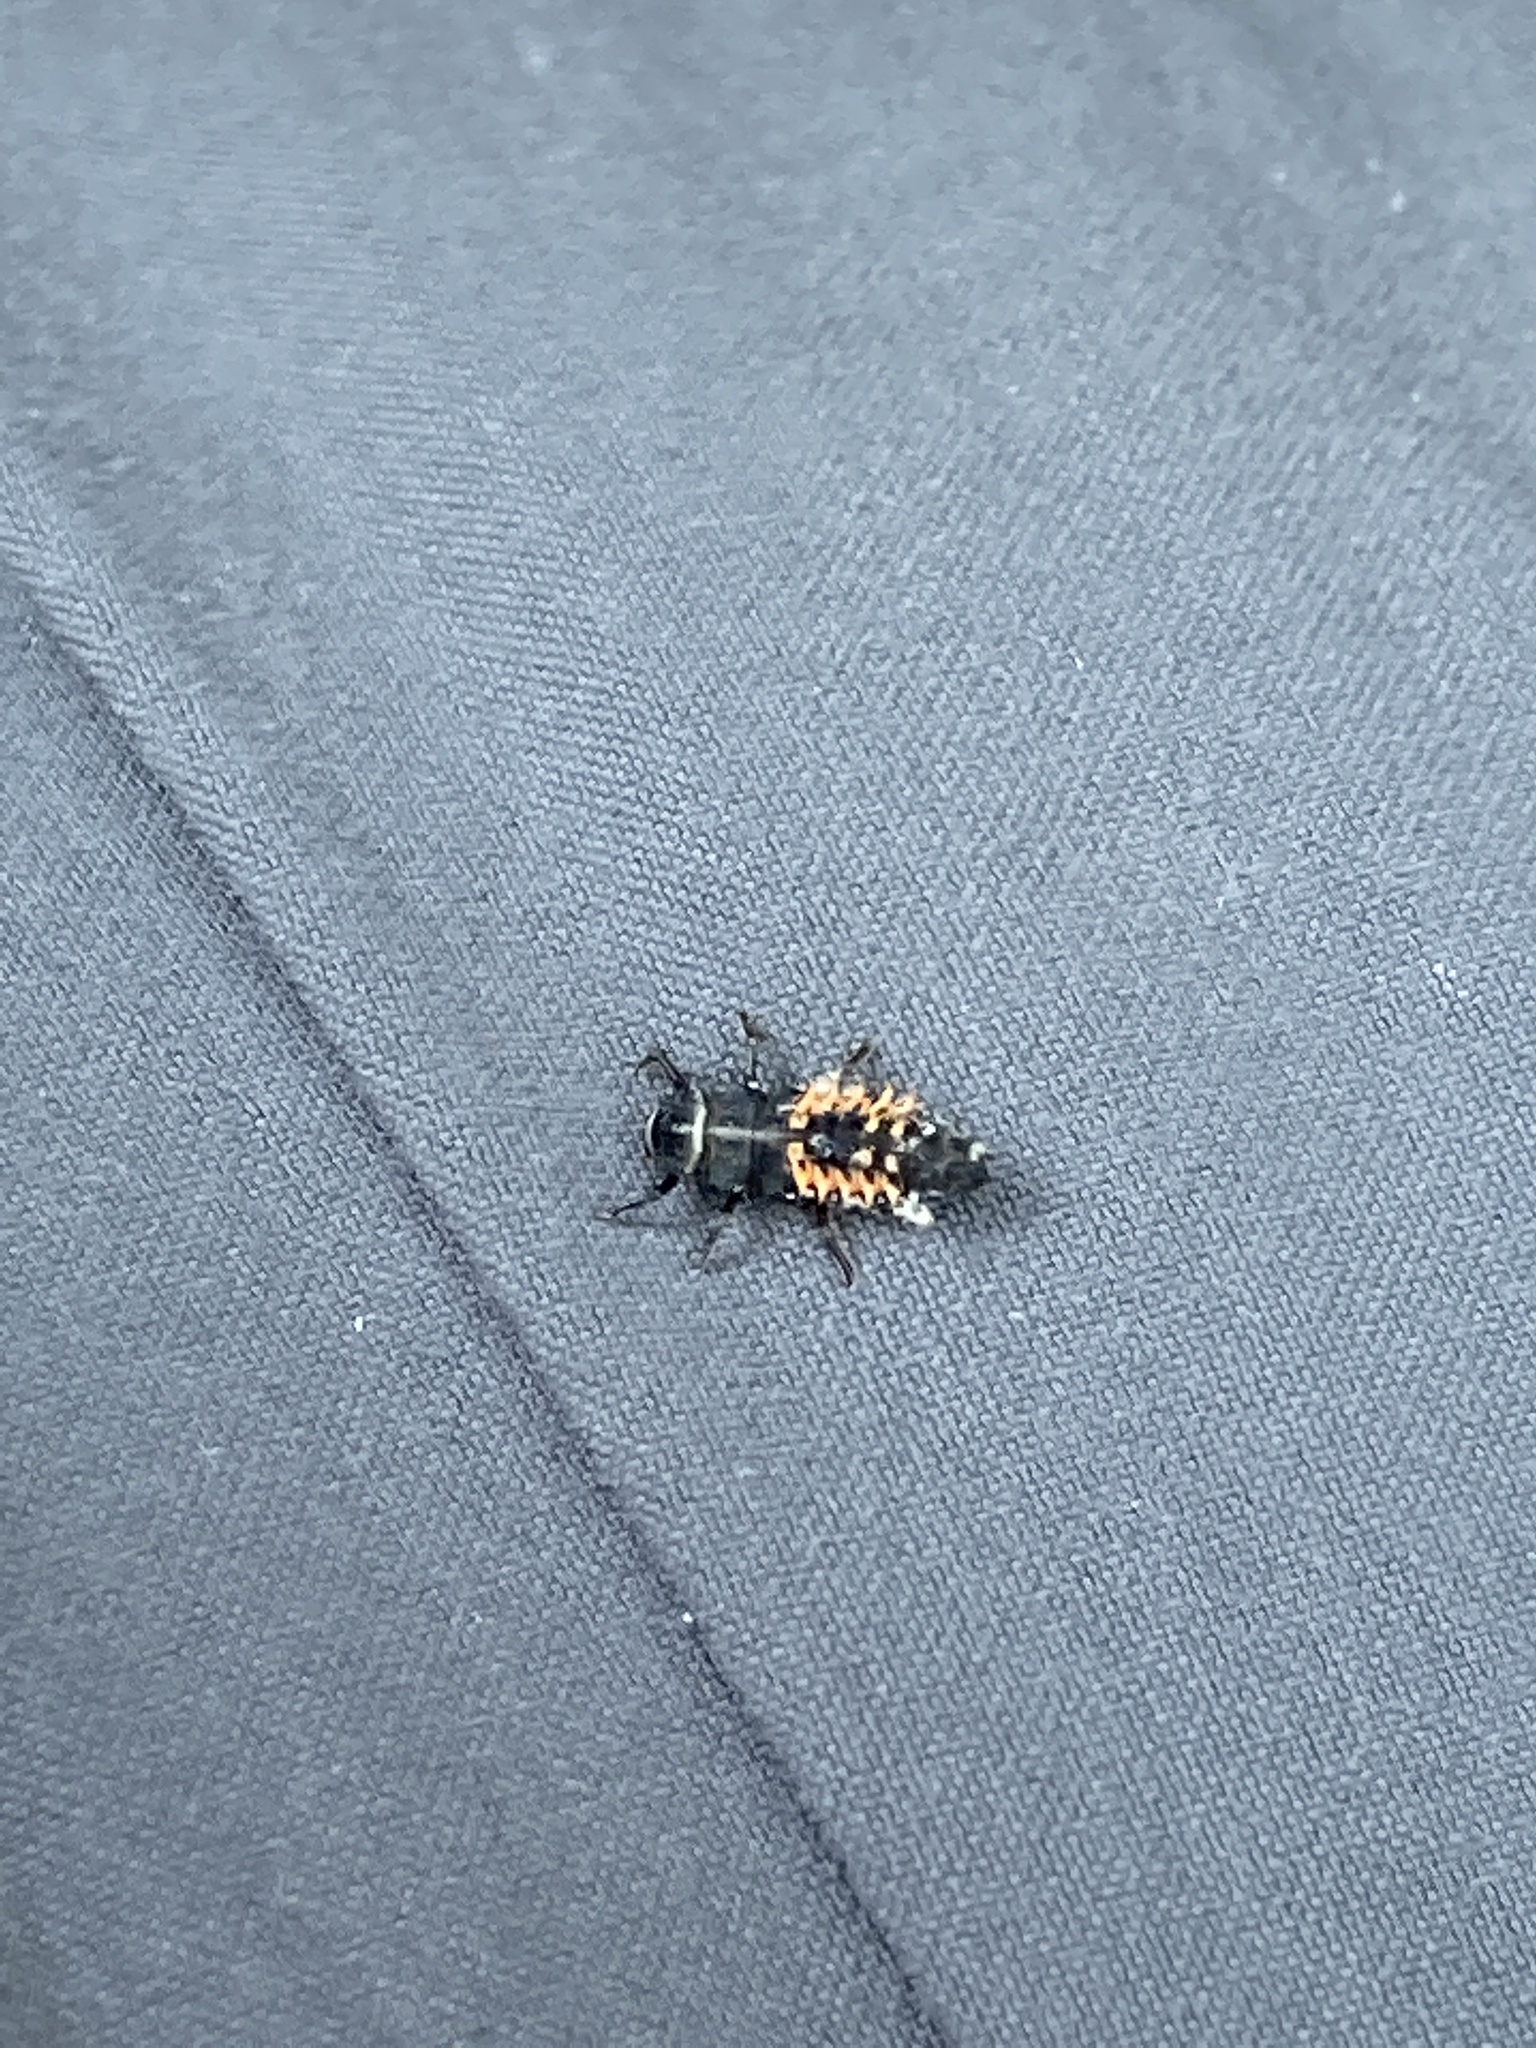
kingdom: Animalia
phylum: Arthropoda
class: Insecta
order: Coleoptera
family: Coccinellidae
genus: Harmonia
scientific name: Harmonia axyridis
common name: Harlequin ladybird
